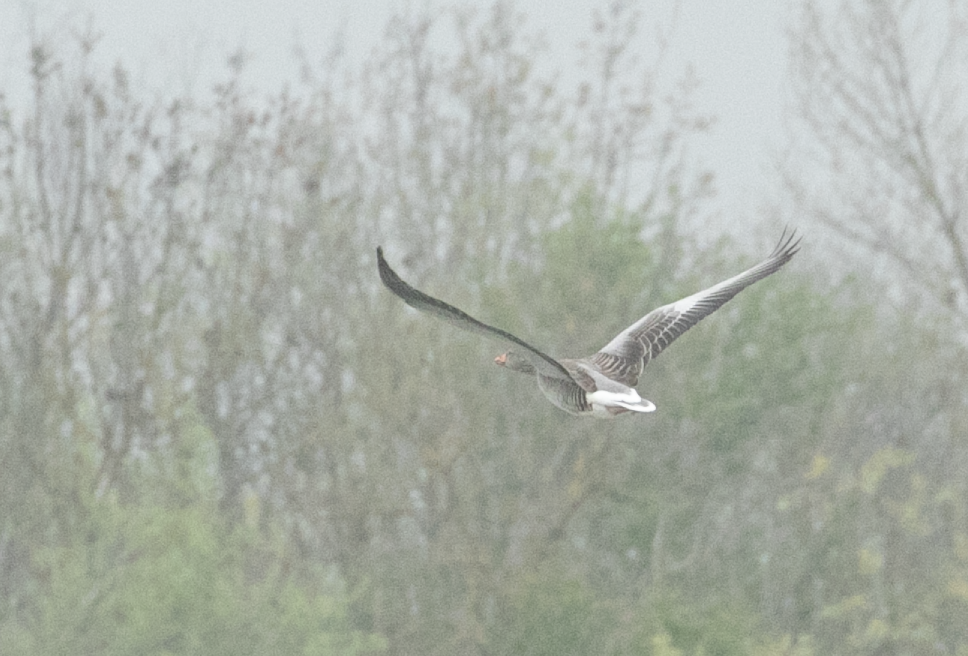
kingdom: Animalia
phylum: Chordata
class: Aves
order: Anseriformes
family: Anatidae
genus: Anser
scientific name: Anser anser
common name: Greylag goose
